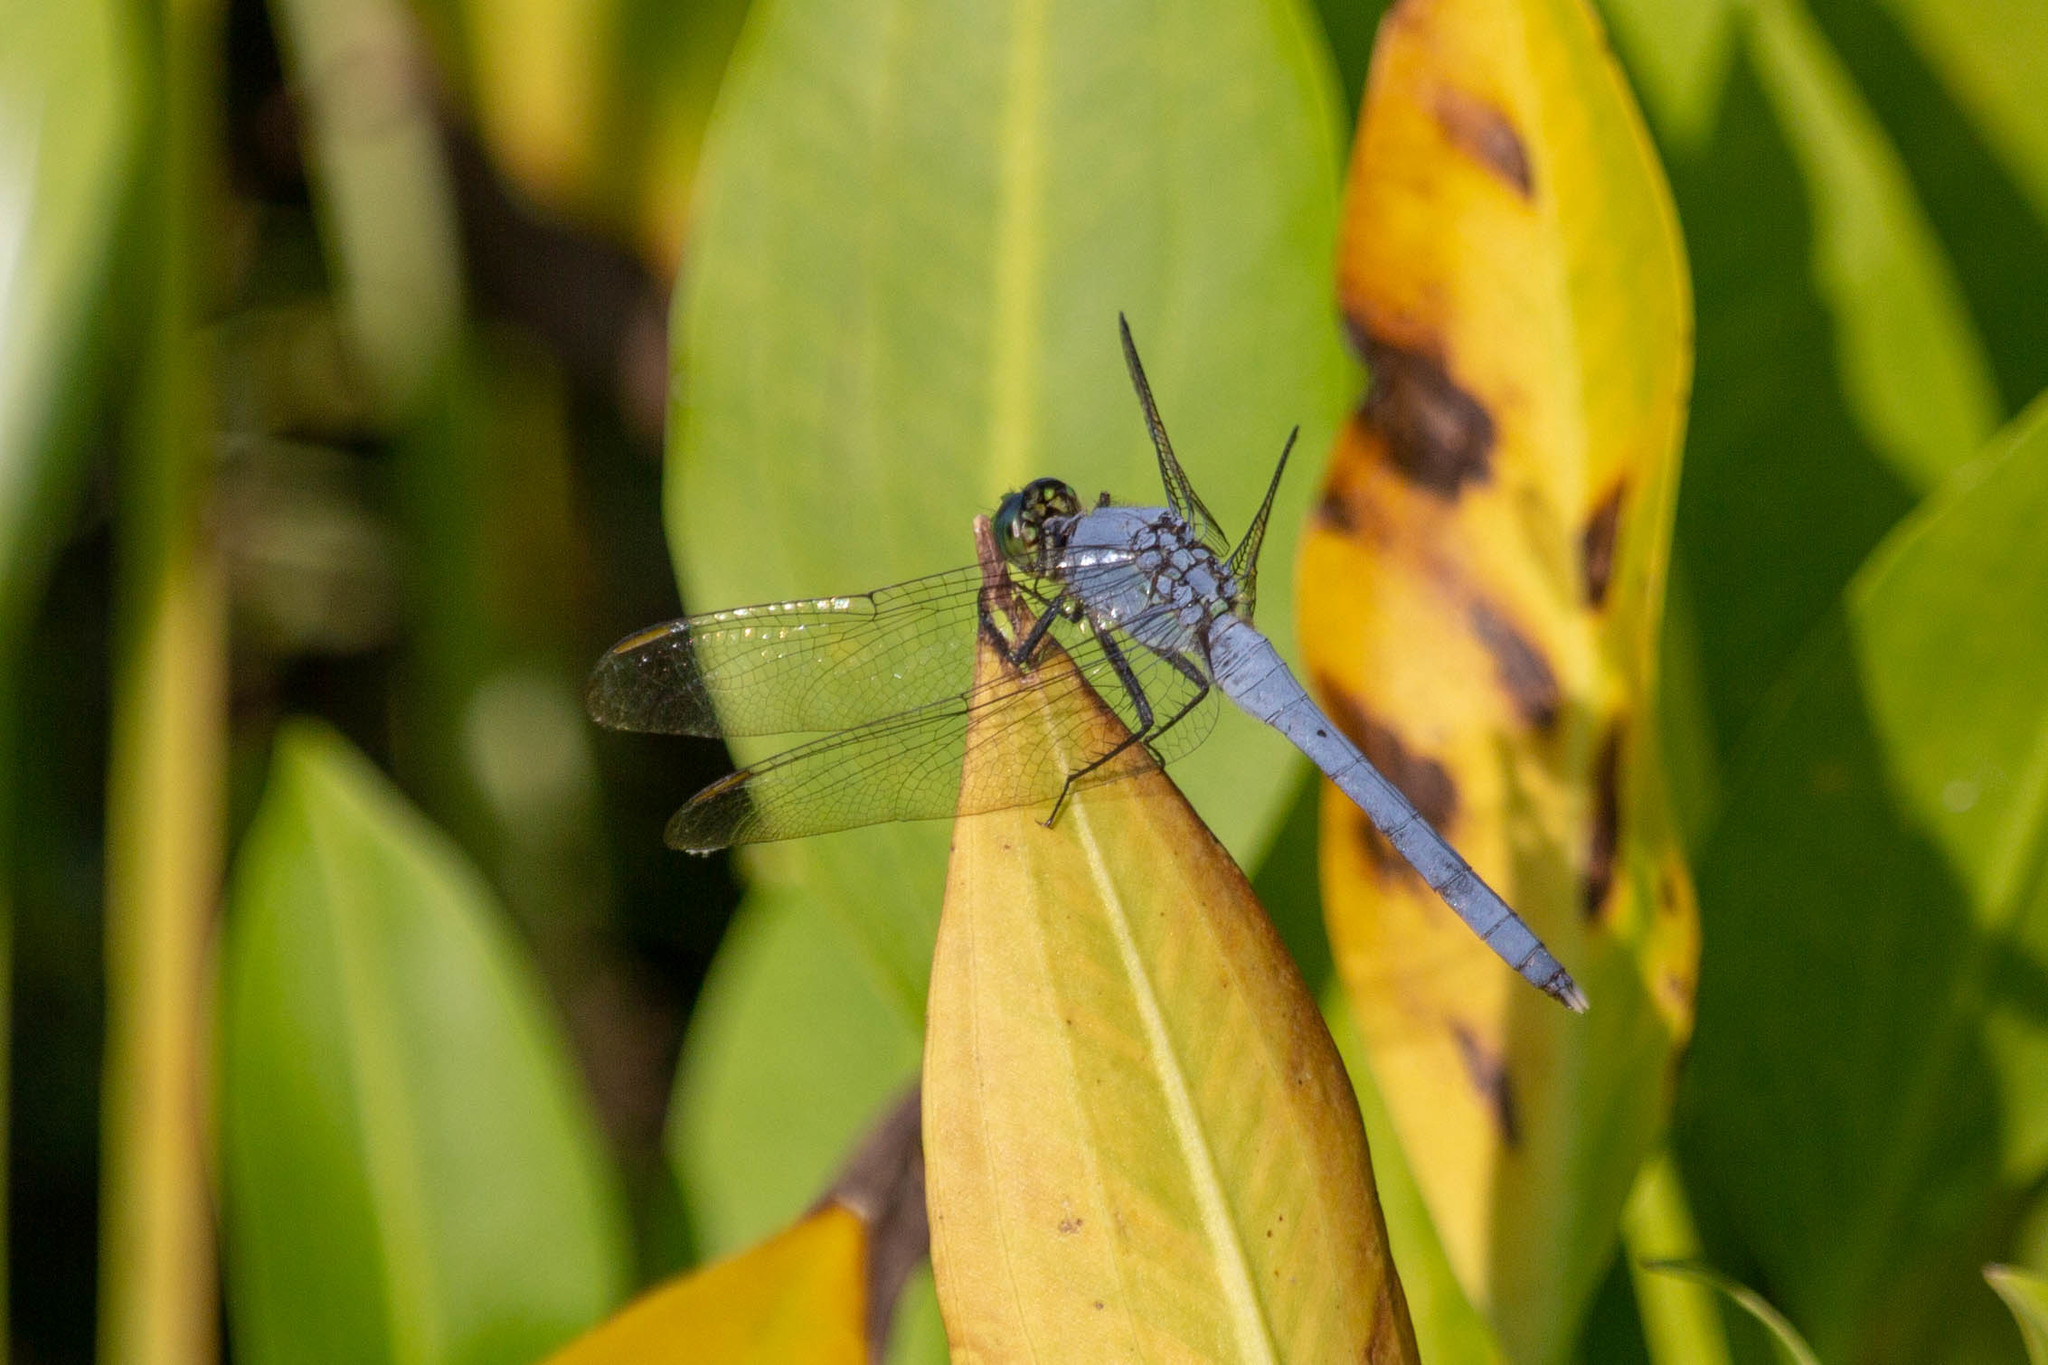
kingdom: Animalia
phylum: Arthropoda
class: Insecta
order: Odonata
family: Libellulidae
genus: Erythemis
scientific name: Erythemis simplicicollis
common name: Eastern pondhawk
